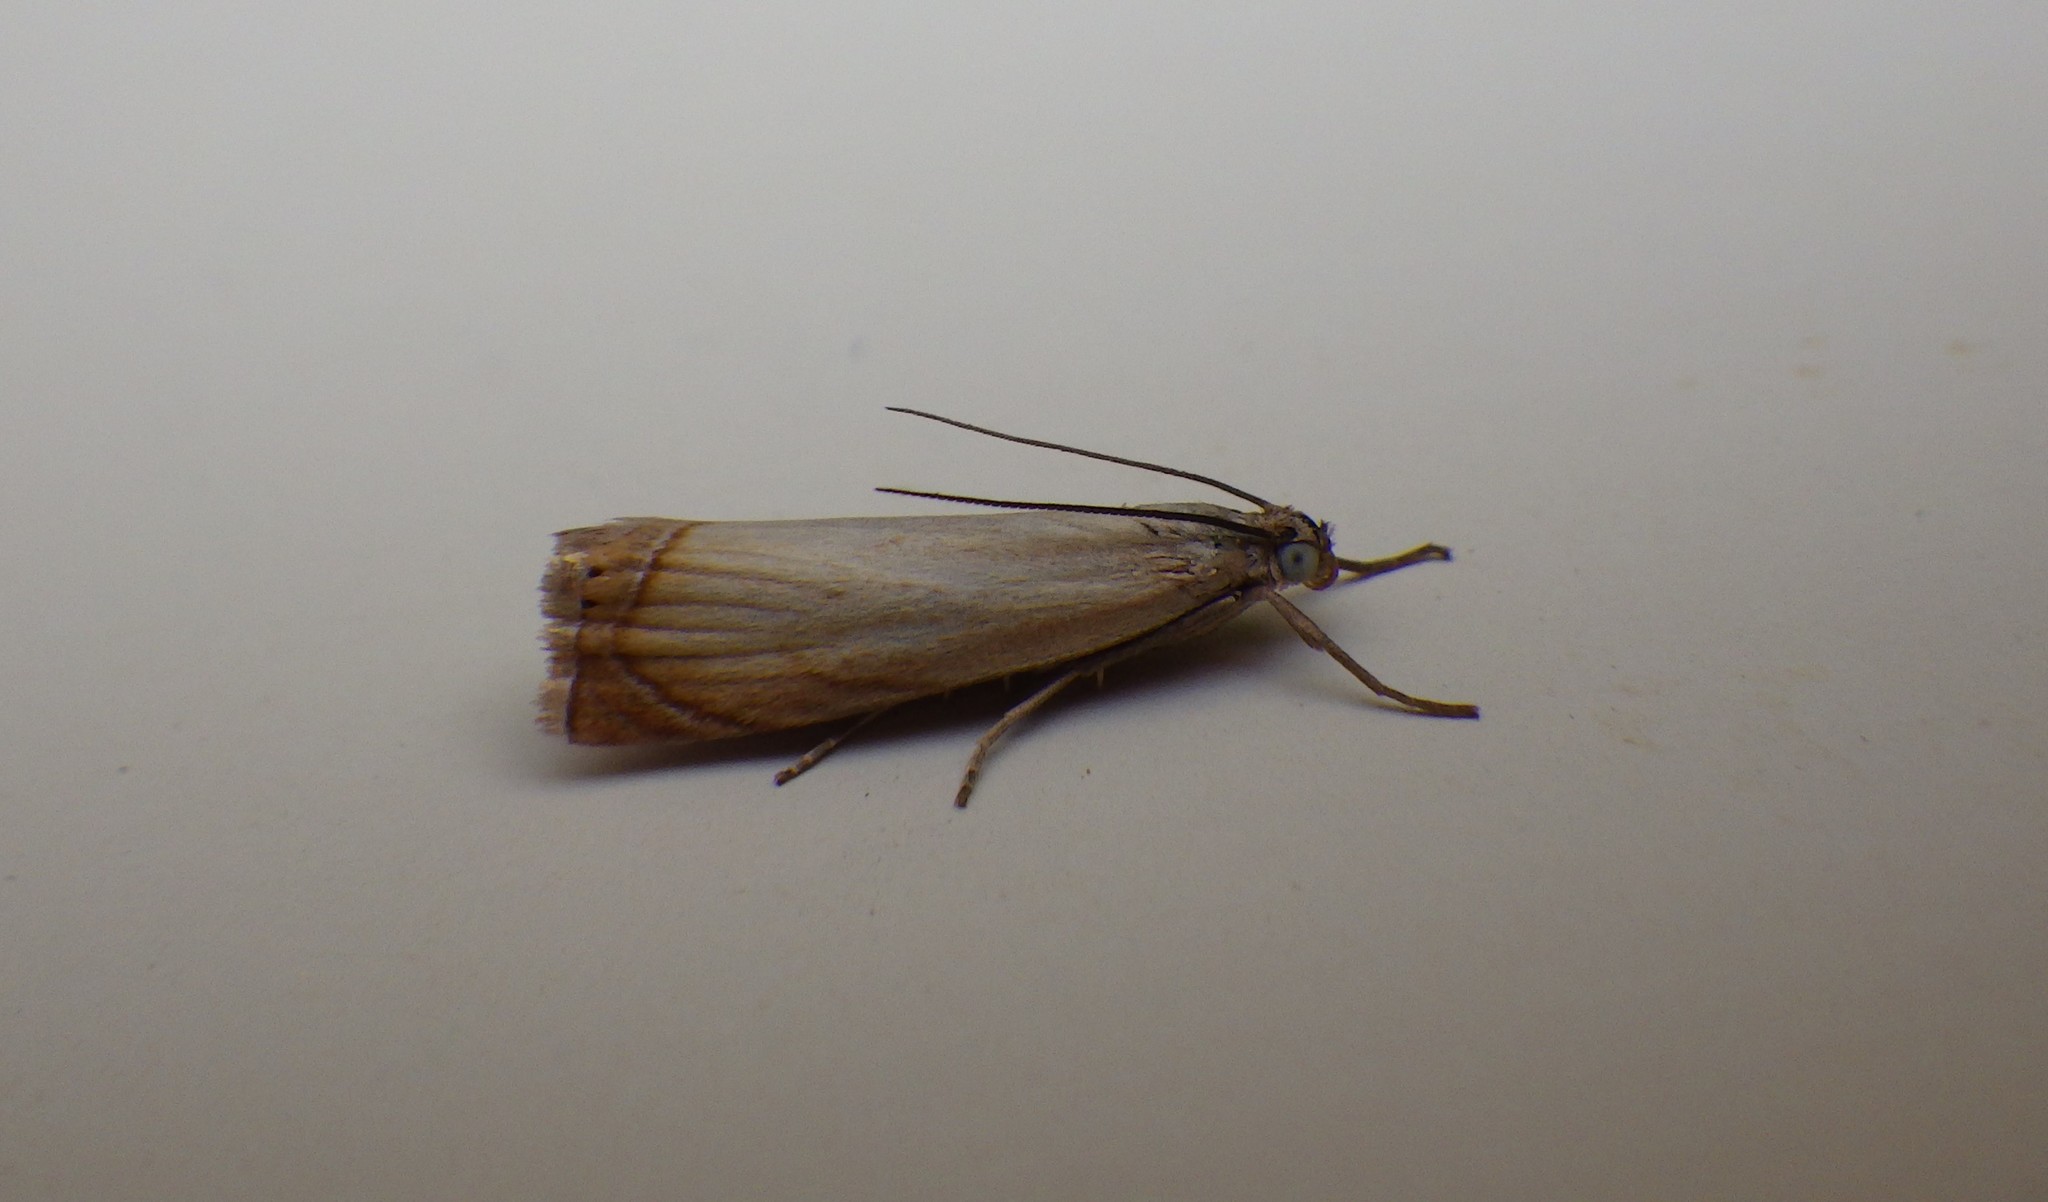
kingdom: Animalia
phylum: Arthropoda
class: Insecta
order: Lepidoptera
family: Crambidae
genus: Chrysoteuchia
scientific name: Chrysoteuchia culmella
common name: Garden grass-veneer
